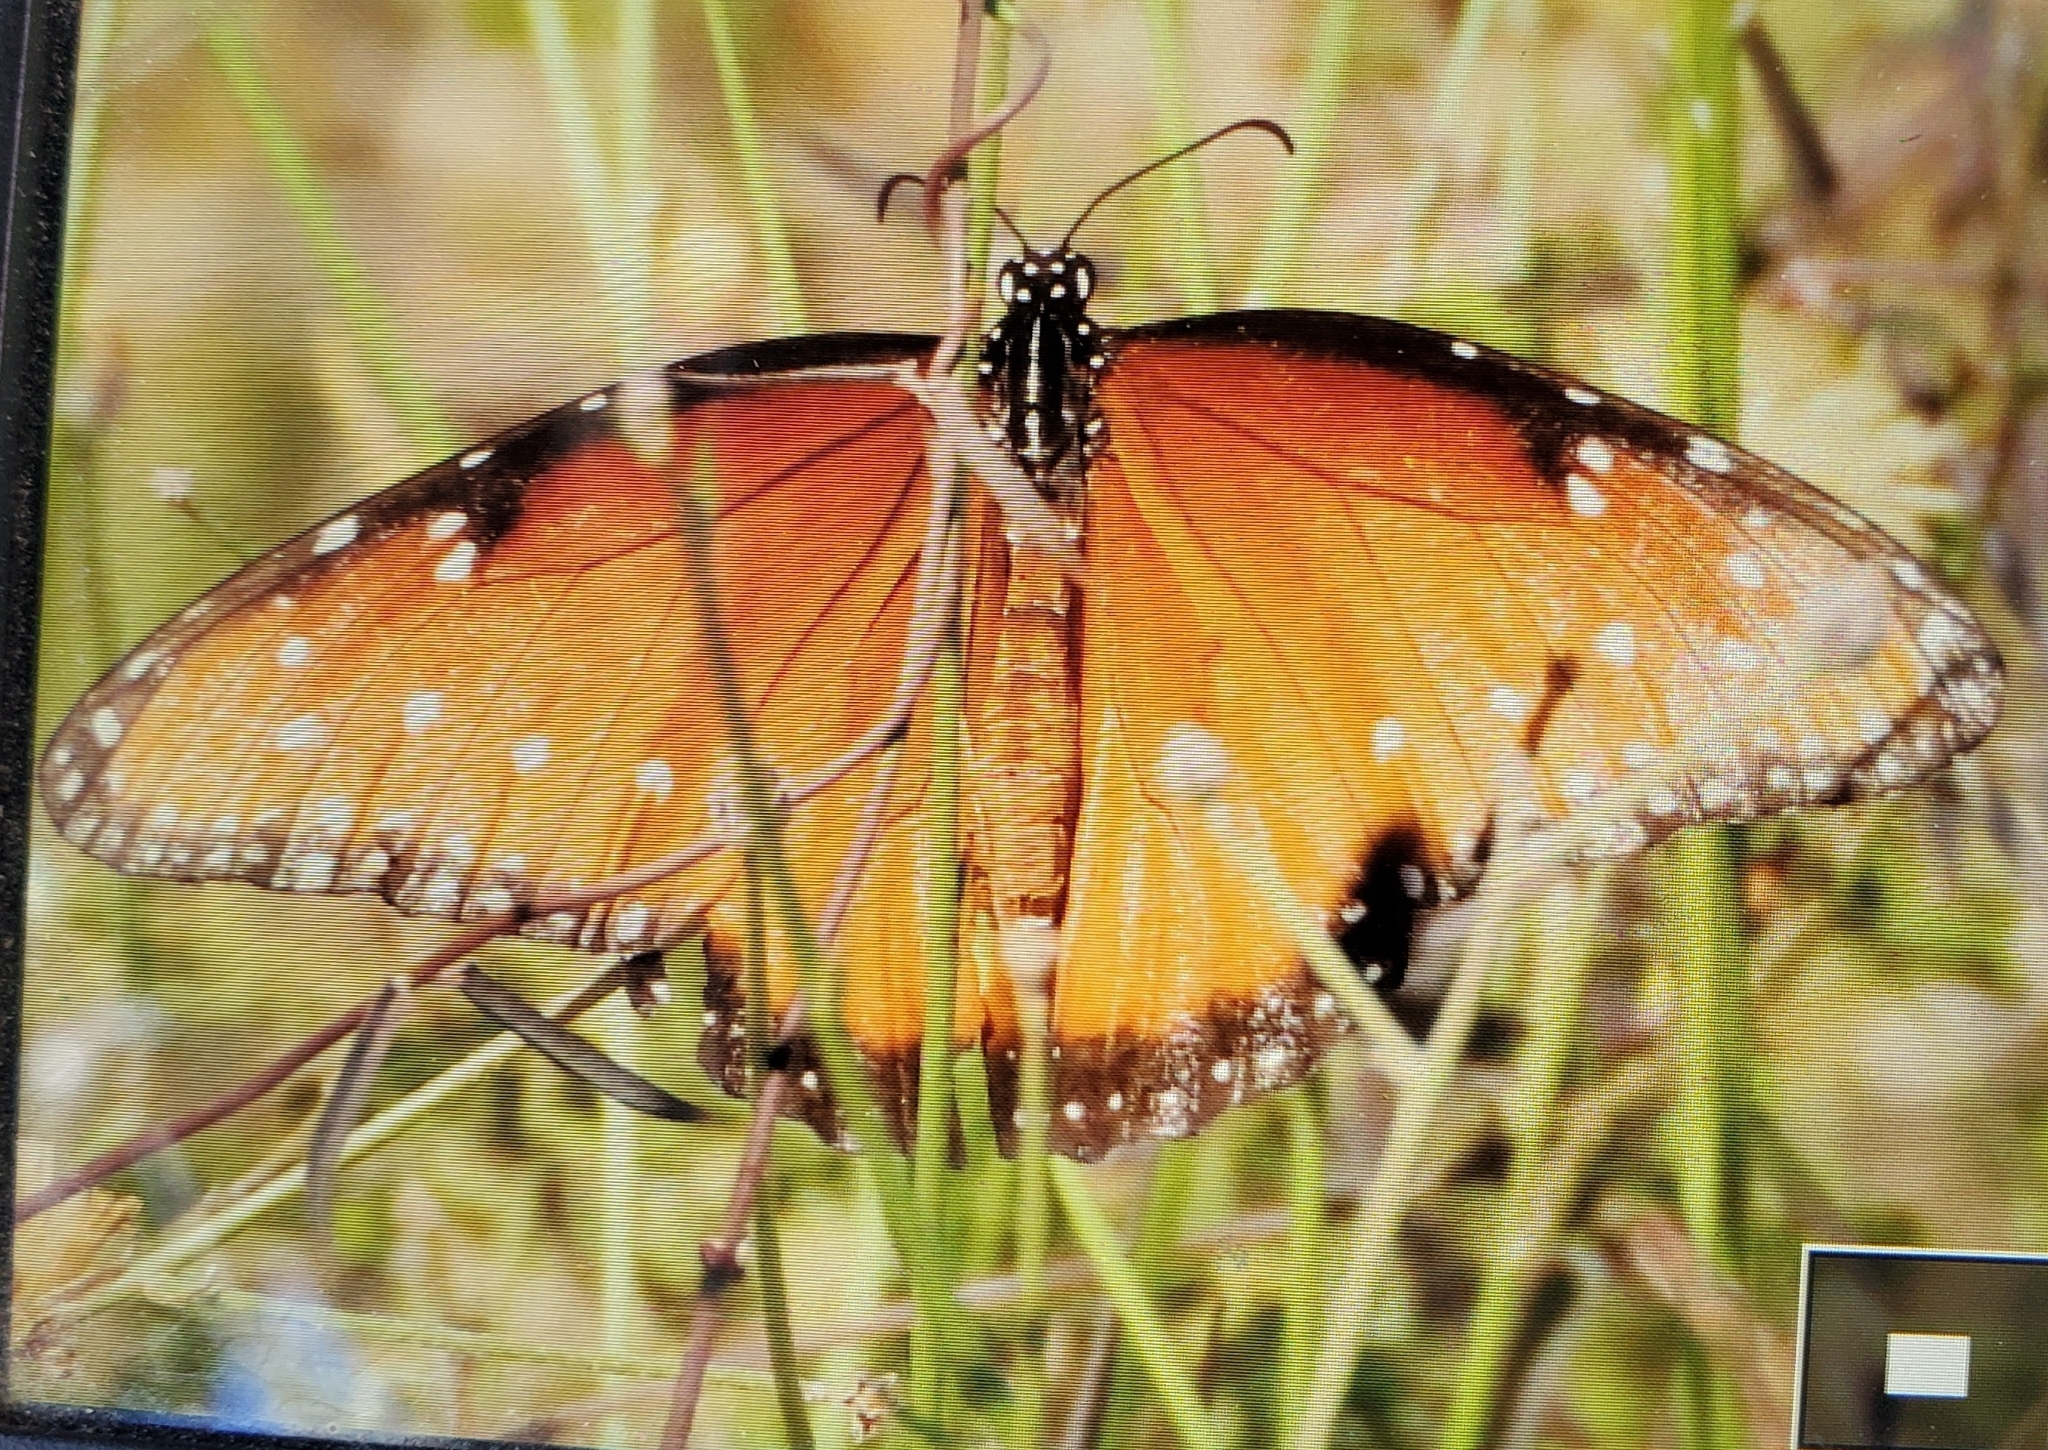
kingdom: Animalia
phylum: Arthropoda
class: Insecta
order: Lepidoptera
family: Nymphalidae
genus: Danaus
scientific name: Danaus gilippus
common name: Queen
